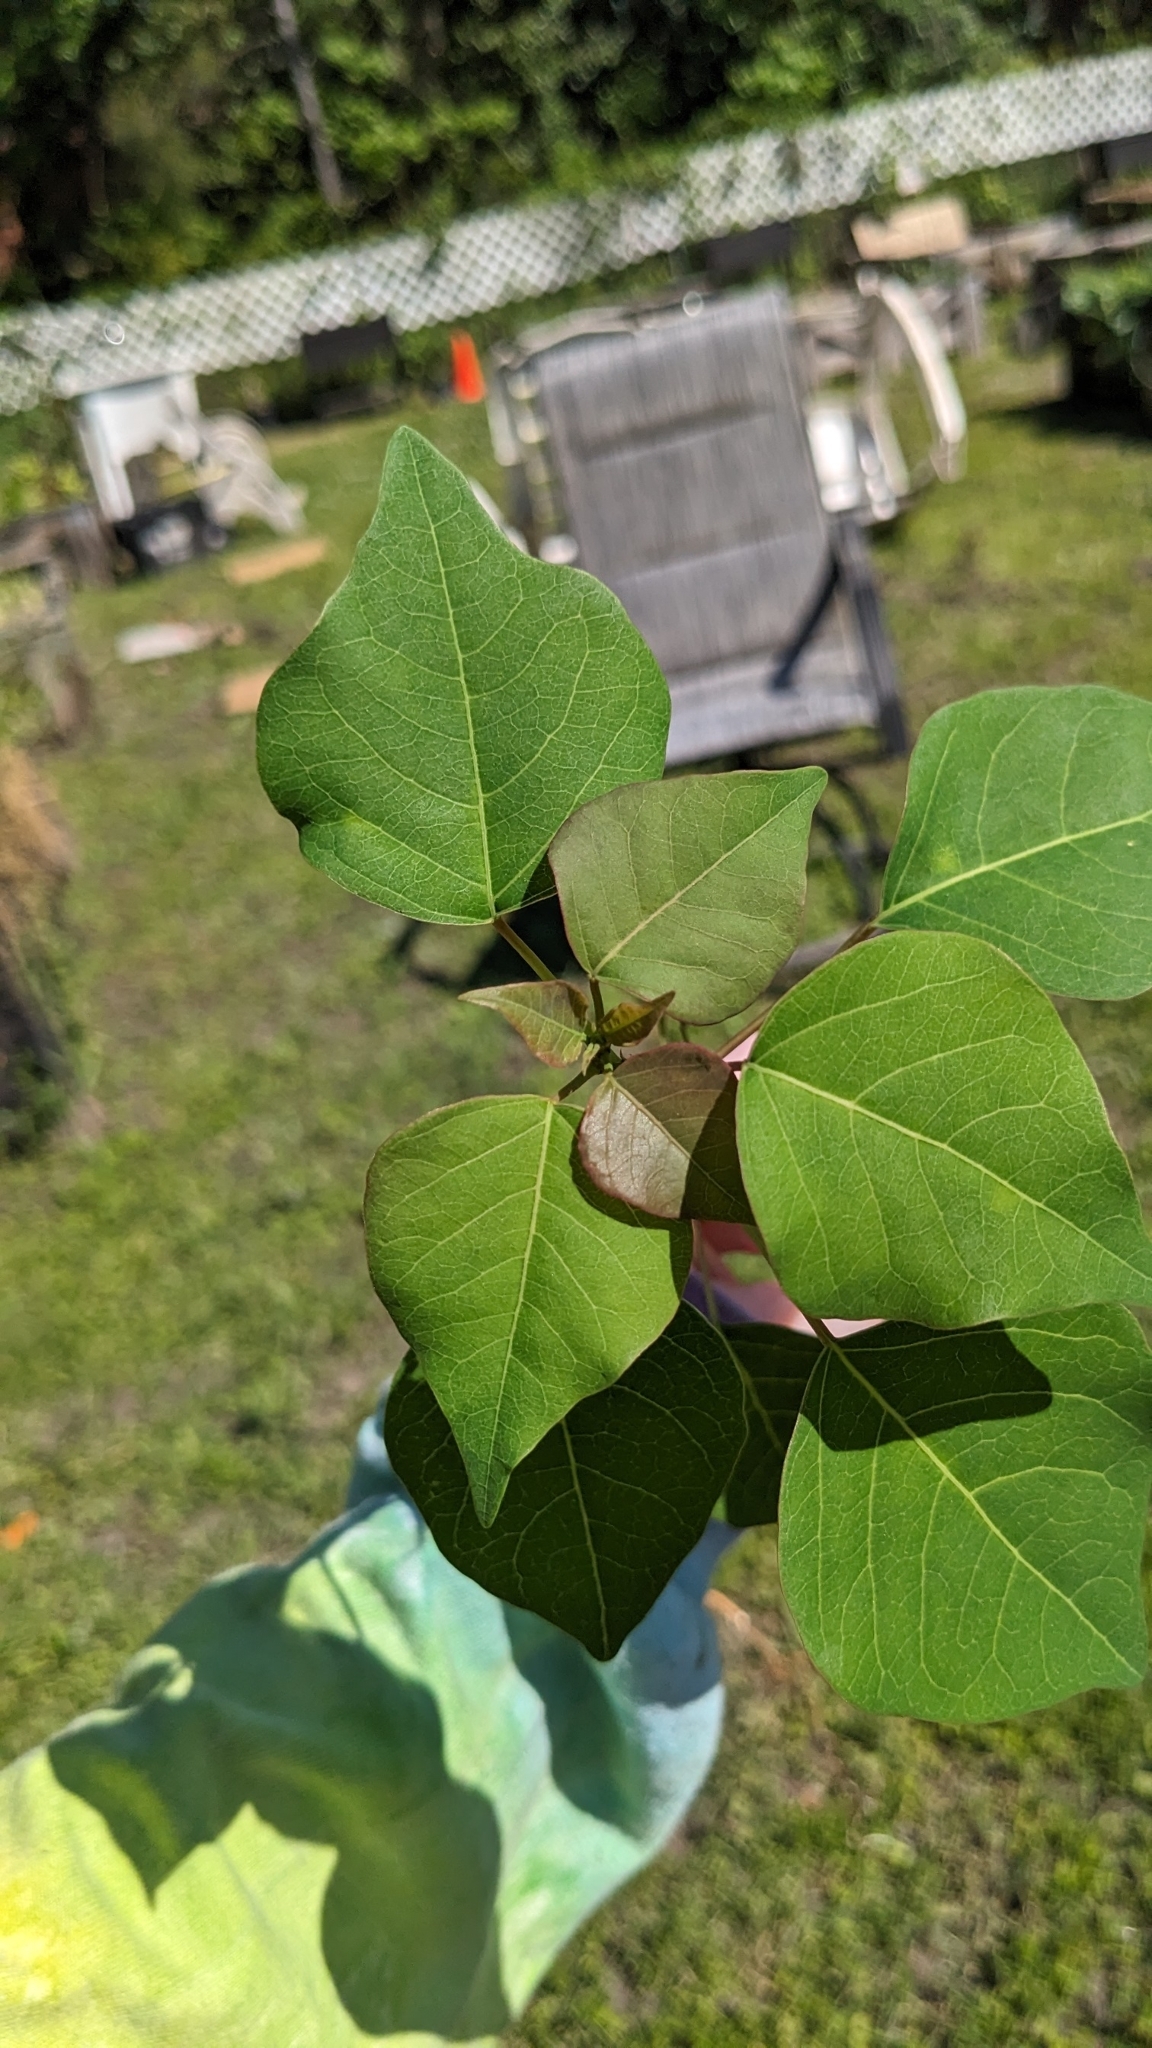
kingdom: Plantae
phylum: Tracheophyta
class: Magnoliopsida
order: Malpighiales
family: Euphorbiaceae
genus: Triadica
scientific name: Triadica sebifera
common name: Chinese tallow
